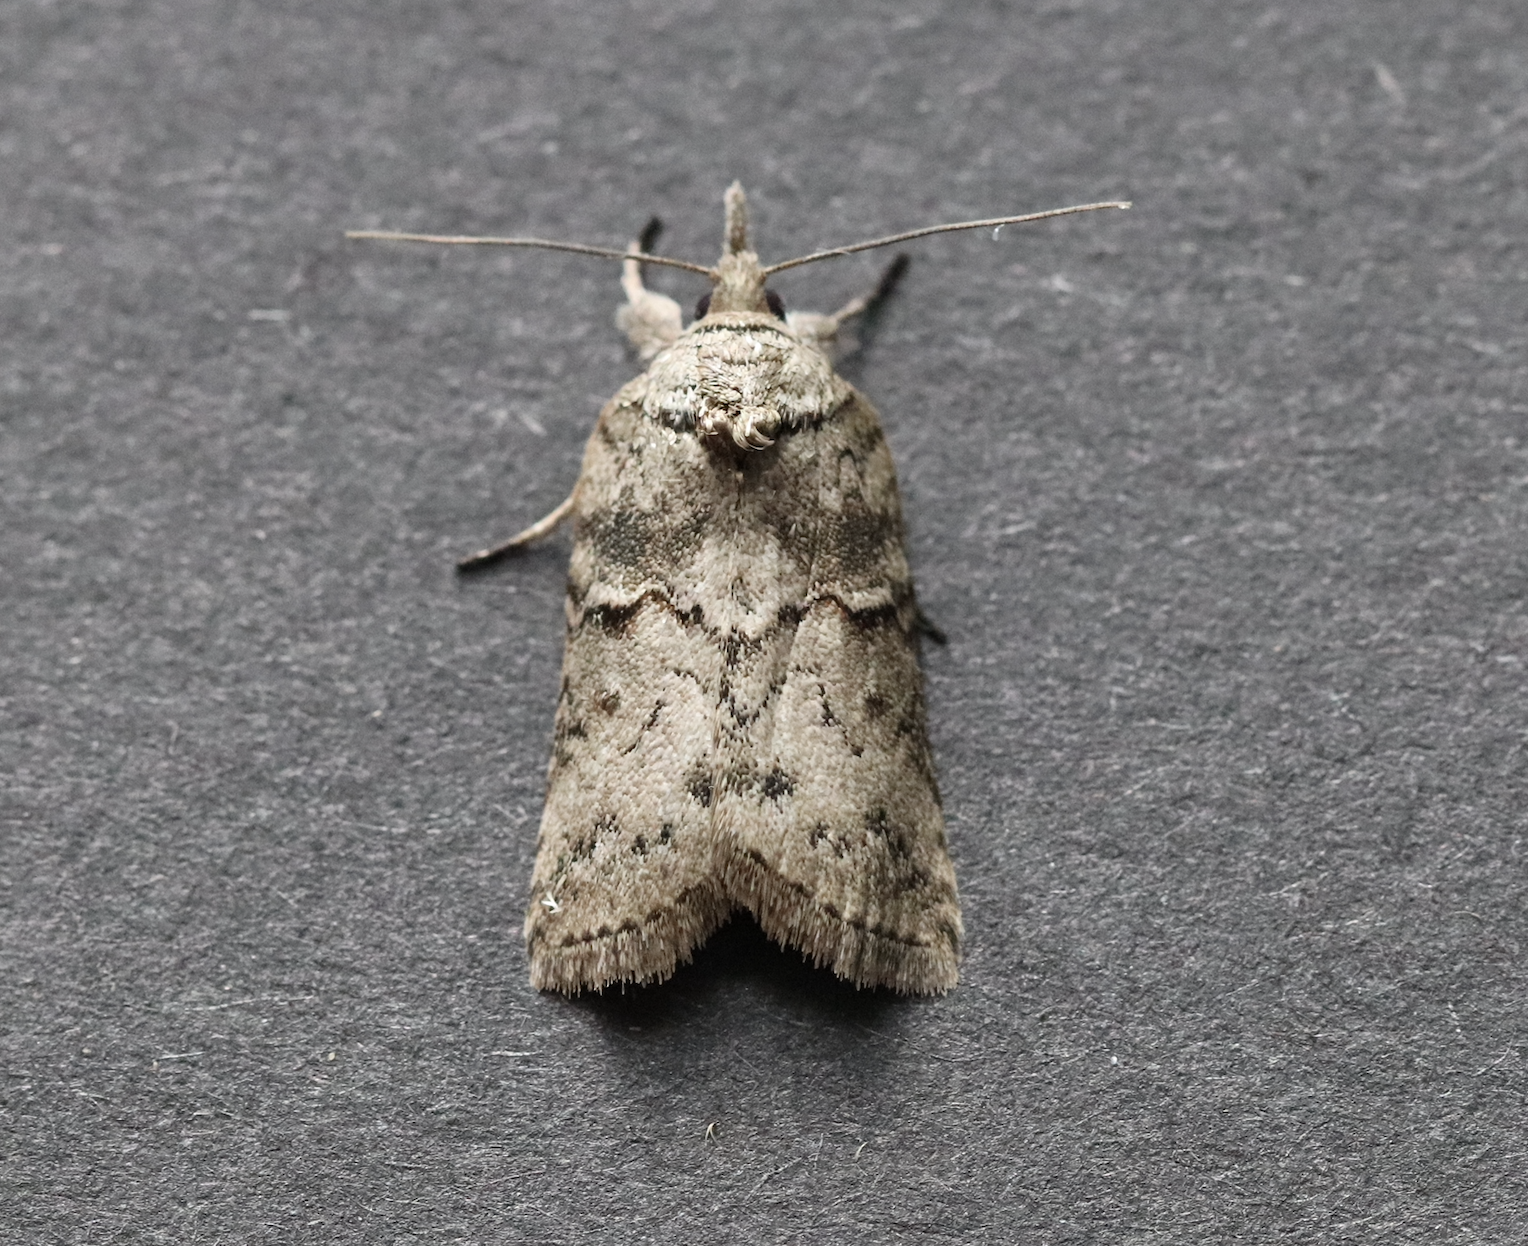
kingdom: Animalia
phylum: Arthropoda
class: Insecta
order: Lepidoptera
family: Nolidae
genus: Nycteola
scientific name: Nycteola revayana
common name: Oak nycteoline
